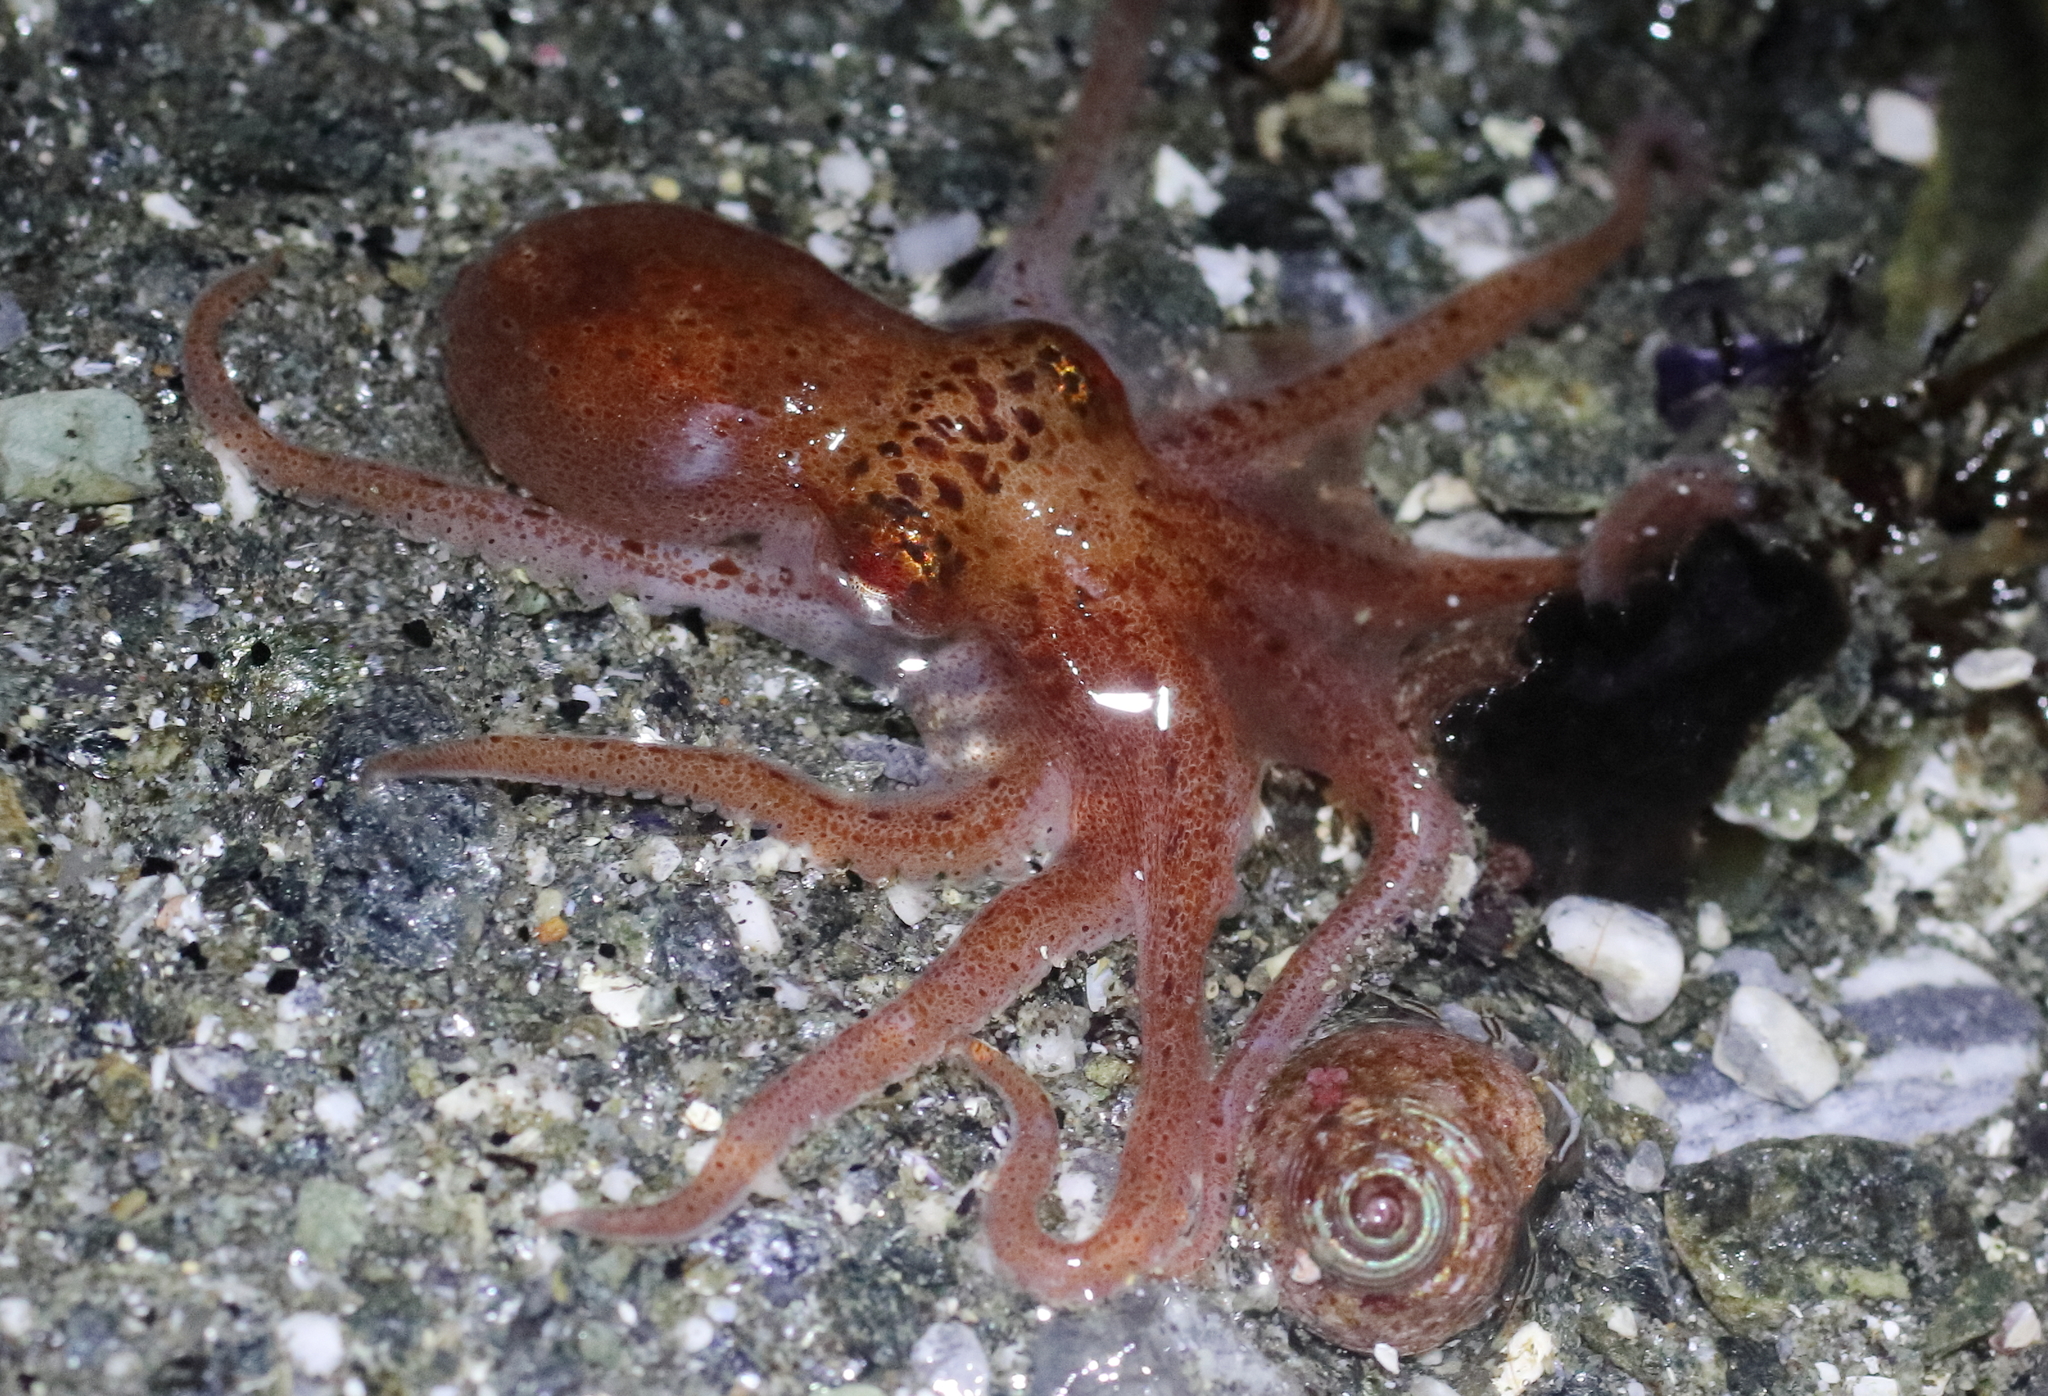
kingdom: Animalia
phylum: Mollusca
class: Cephalopoda
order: Octopoda
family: Enteroctopodidae
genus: Enteroctopus
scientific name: Enteroctopus dofleini
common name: Giant north pacific octopus
